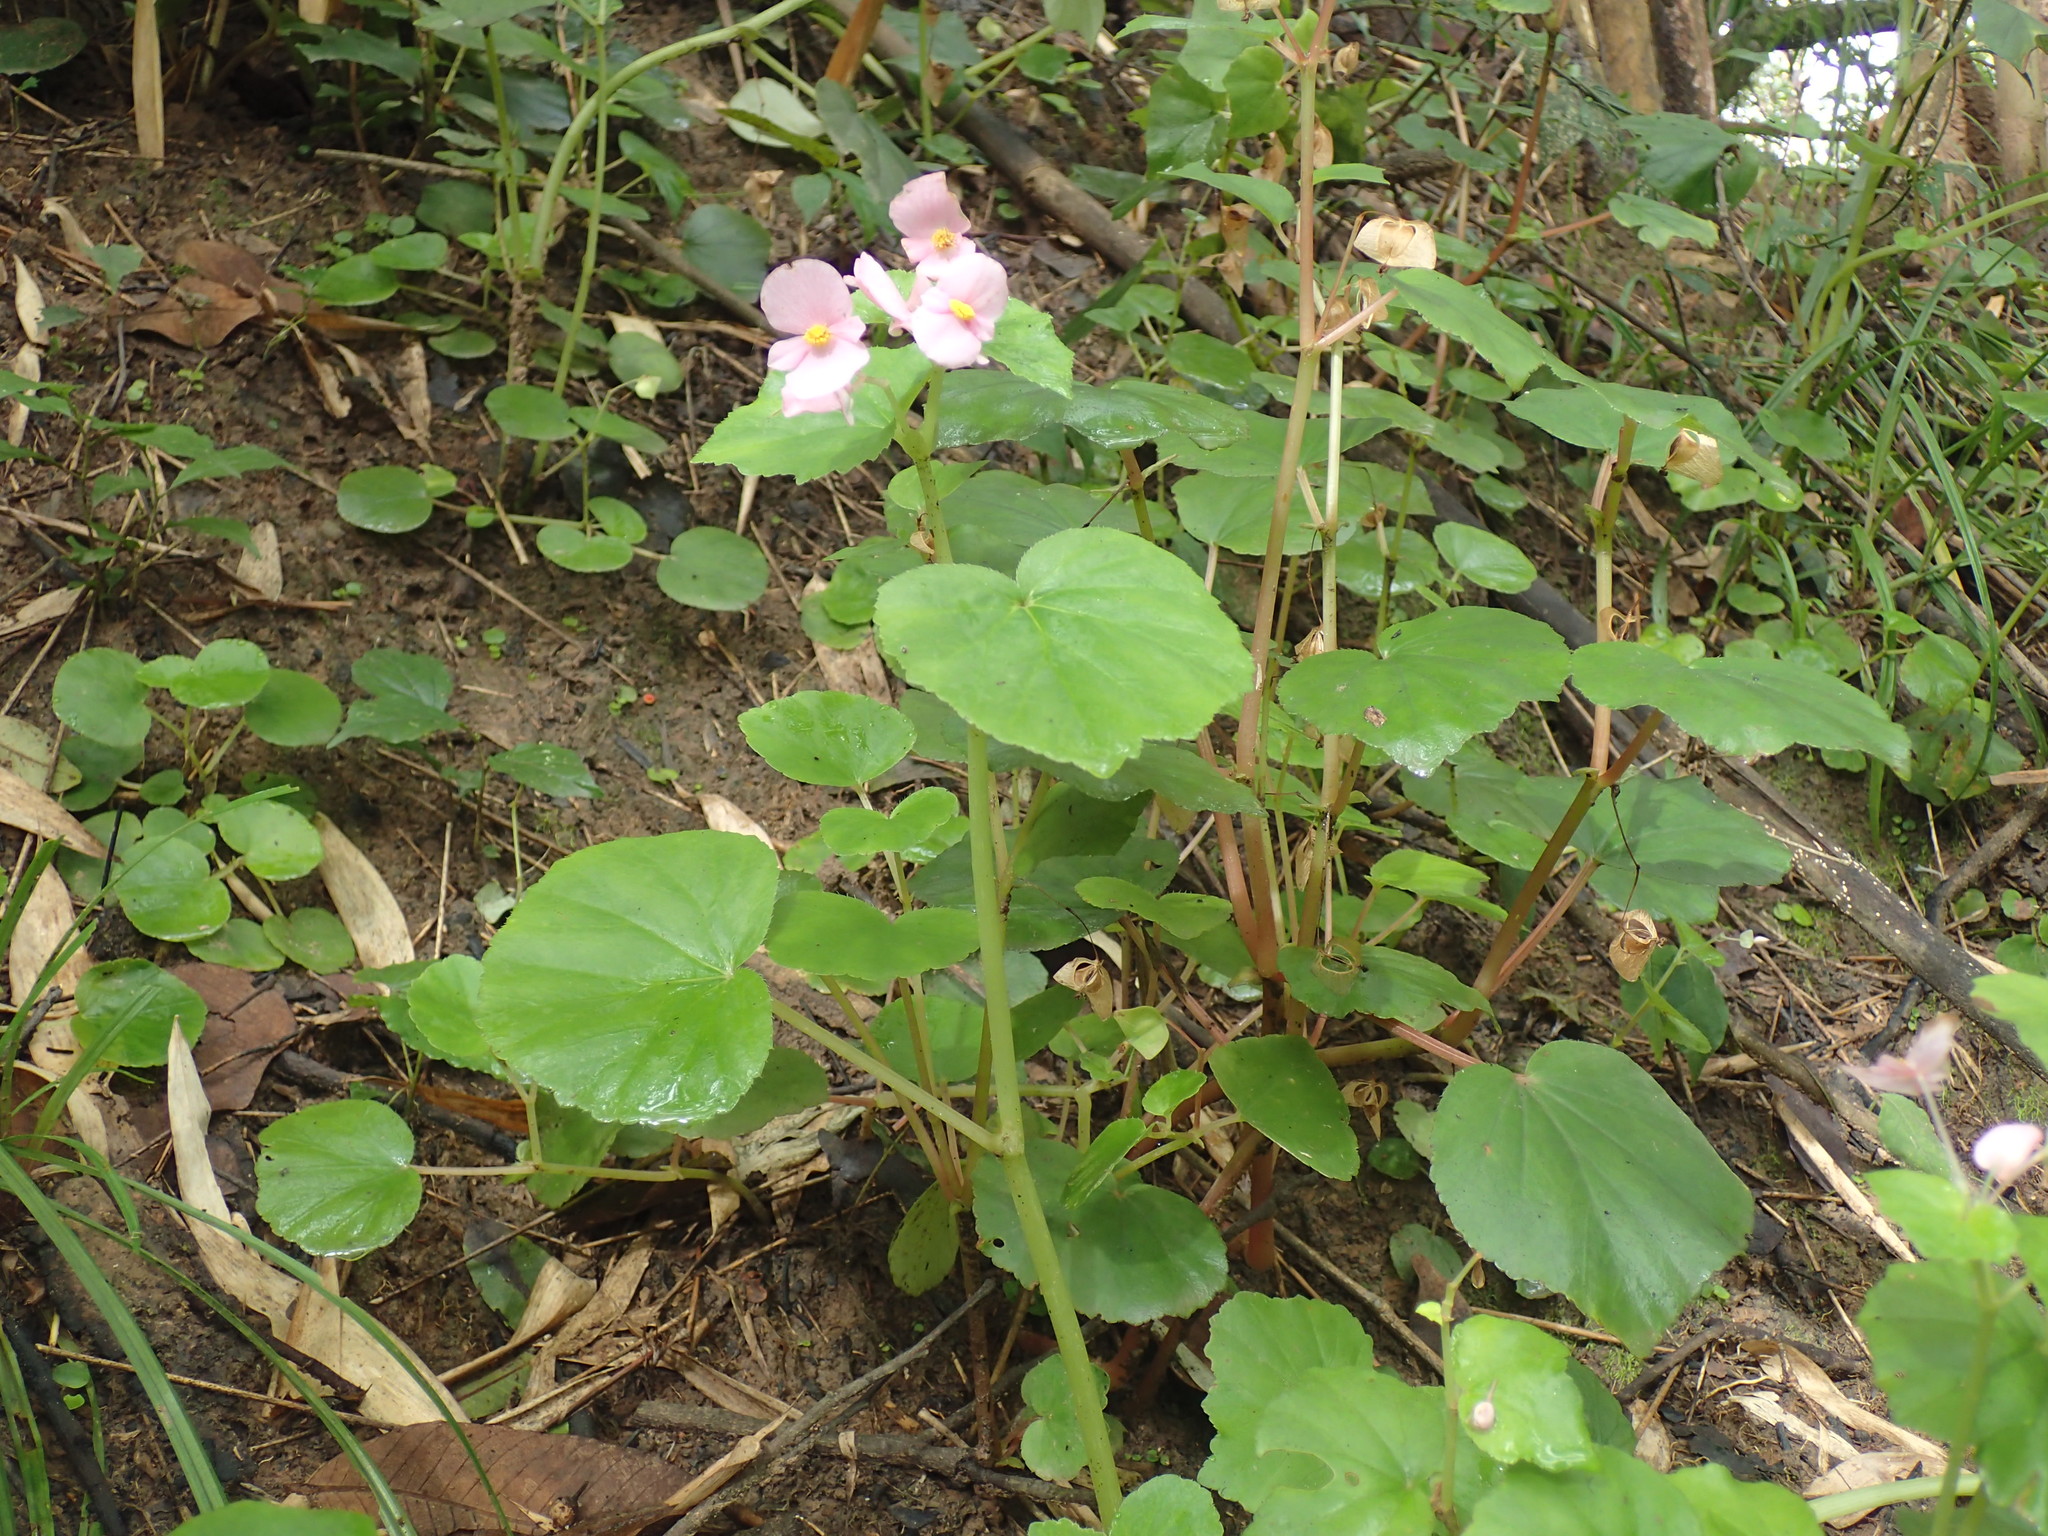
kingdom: Plantae
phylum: Tracheophyta
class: Magnoliopsida
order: Cucurbitales
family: Begoniaceae
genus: Begonia
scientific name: Begonia princeae
